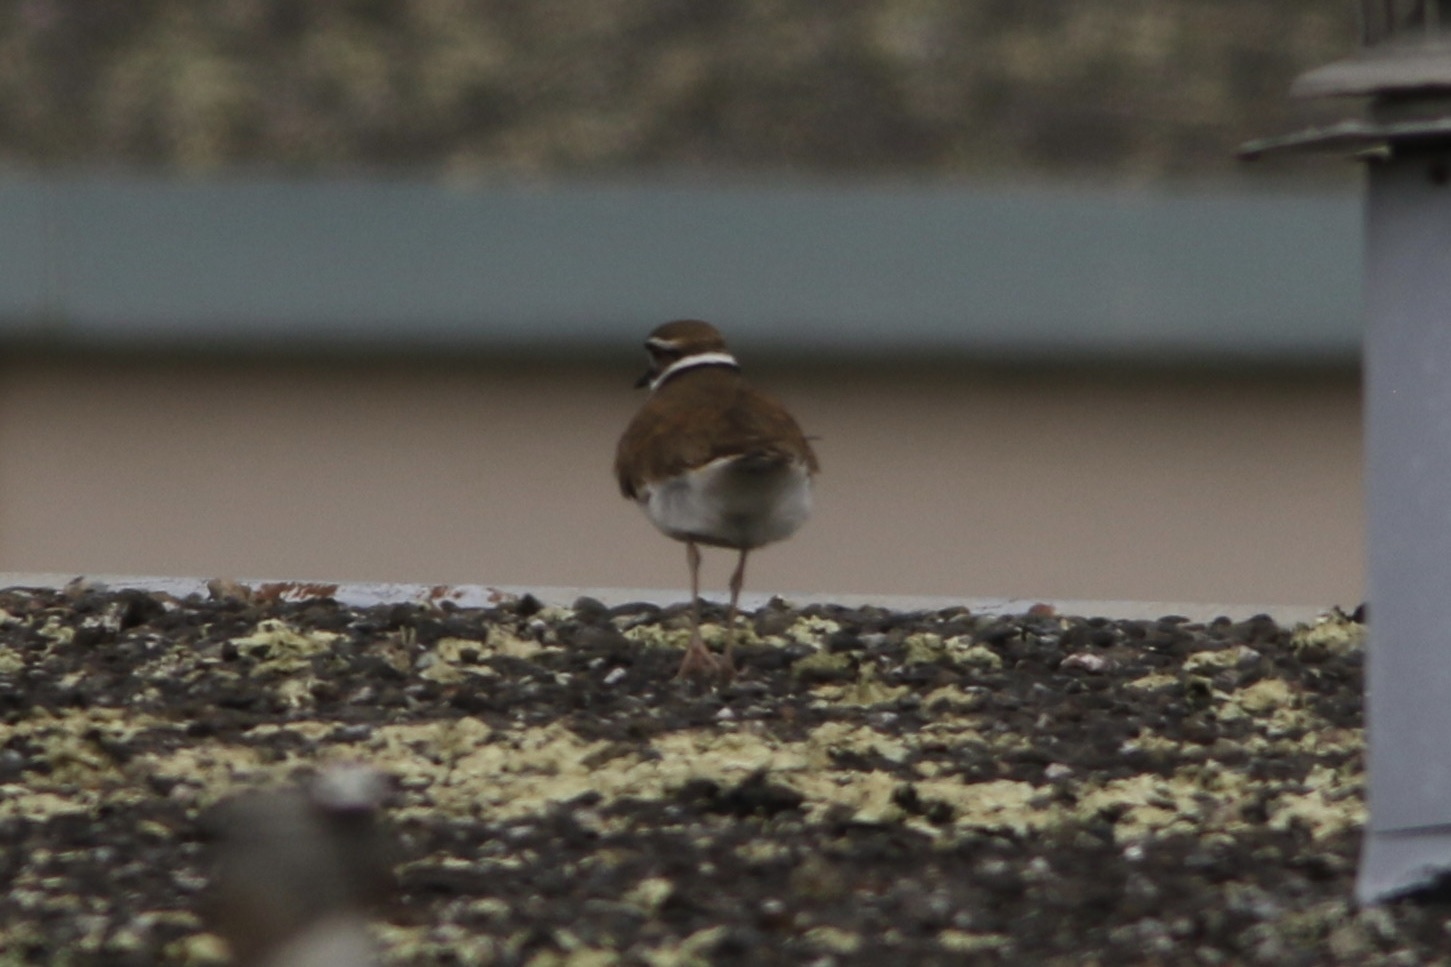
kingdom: Animalia
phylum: Chordata
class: Aves
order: Charadriiformes
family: Charadriidae
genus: Charadrius
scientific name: Charadrius vociferus
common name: Killdeer
